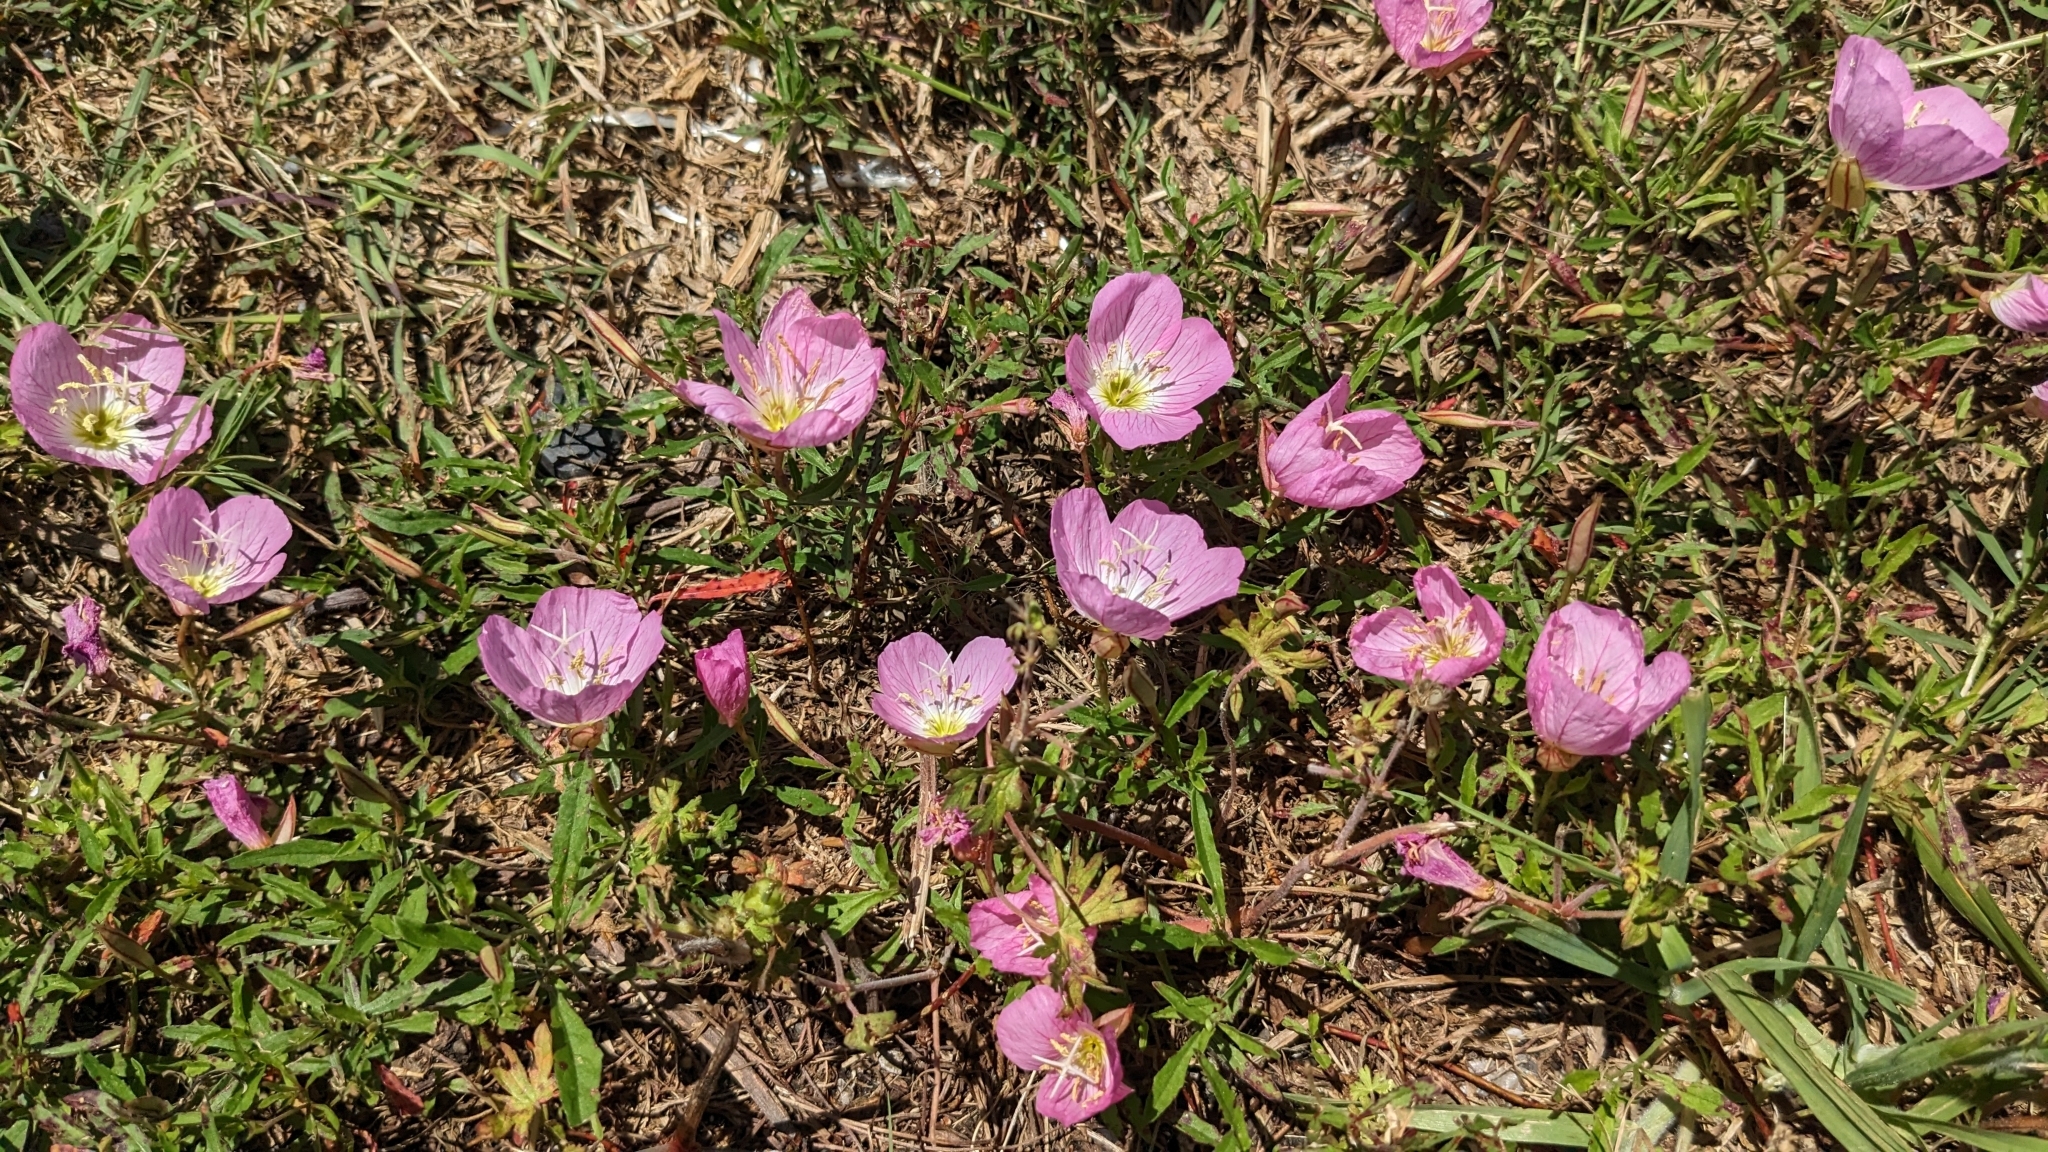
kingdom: Plantae
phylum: Tracheophyta
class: Magnoliopsida
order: Myrtales
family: Onagraceae
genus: Oenothera
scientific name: Oenothera speciosa
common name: White evening-primrose
